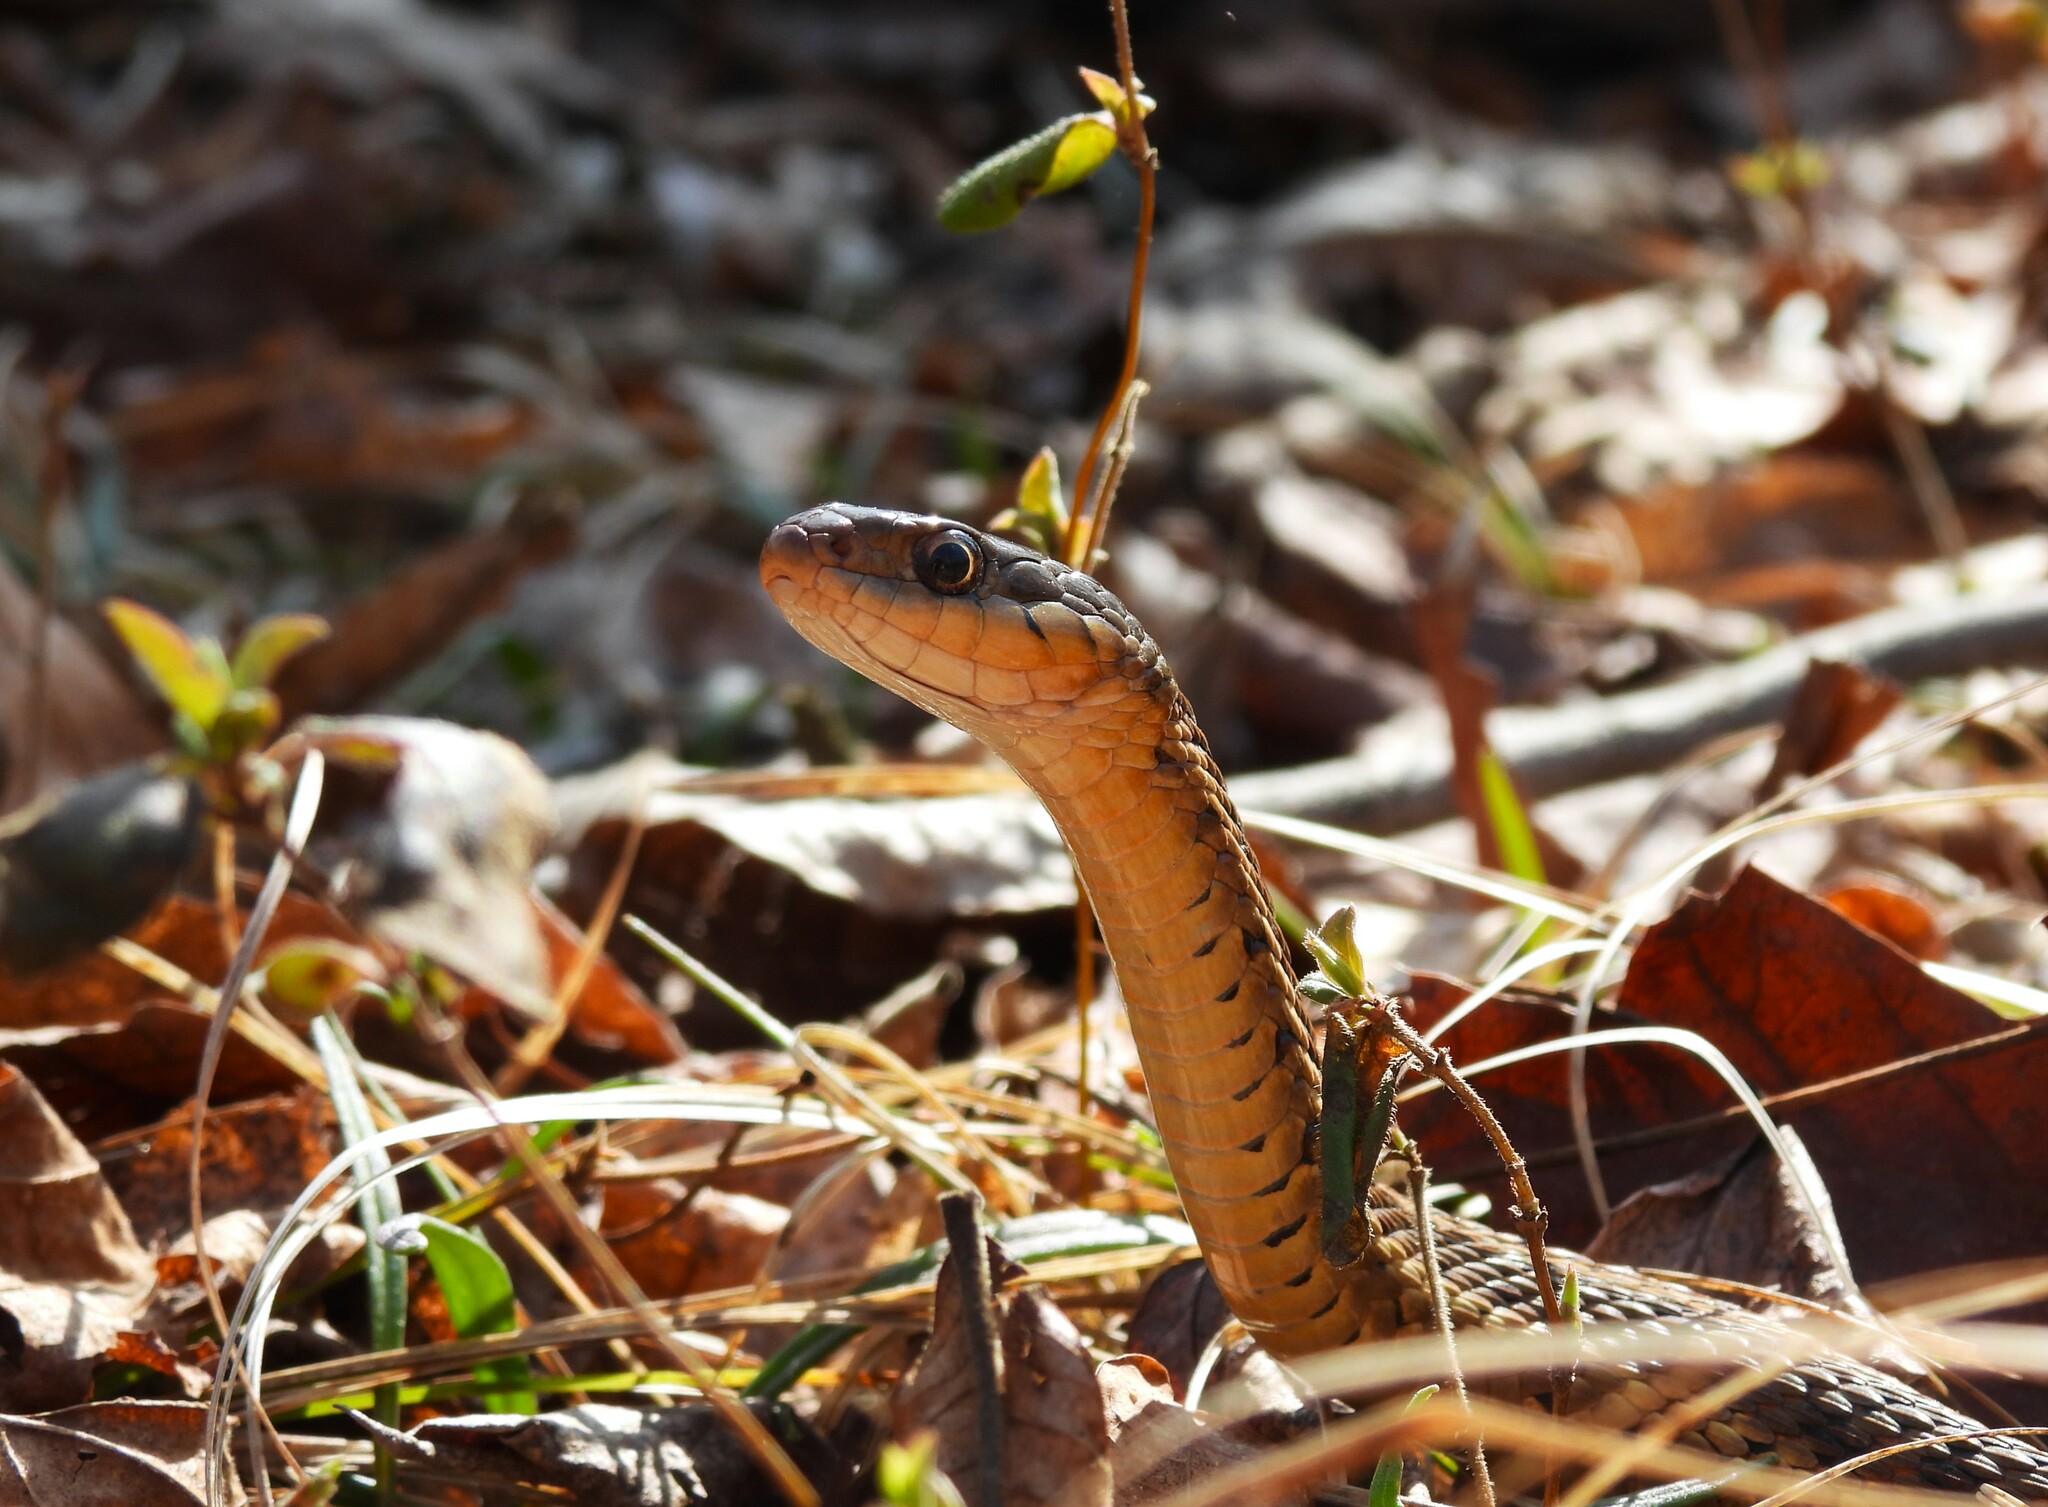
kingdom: Animalia
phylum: Chordata
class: Squamata
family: Colubridae
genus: Thamnophis
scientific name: Thamnophis sirtalis
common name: Common garter snake
